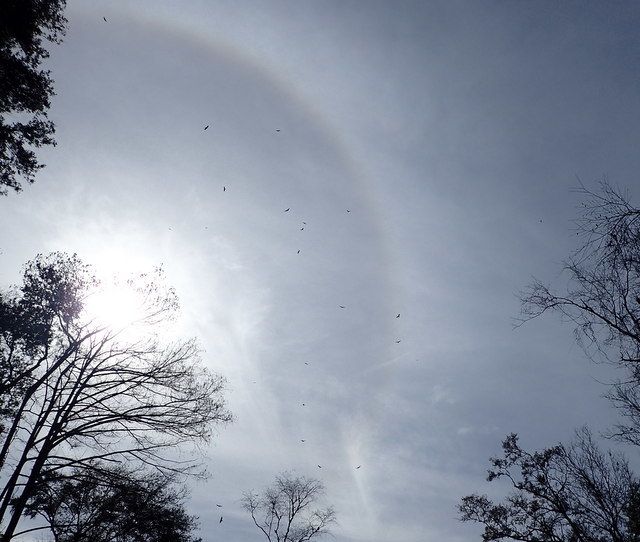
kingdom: Animalia
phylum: Chordata
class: Aves
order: Accipitriformes
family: Cathartidae
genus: Cathartes
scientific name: Cathartes aura
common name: Turkey vulture
